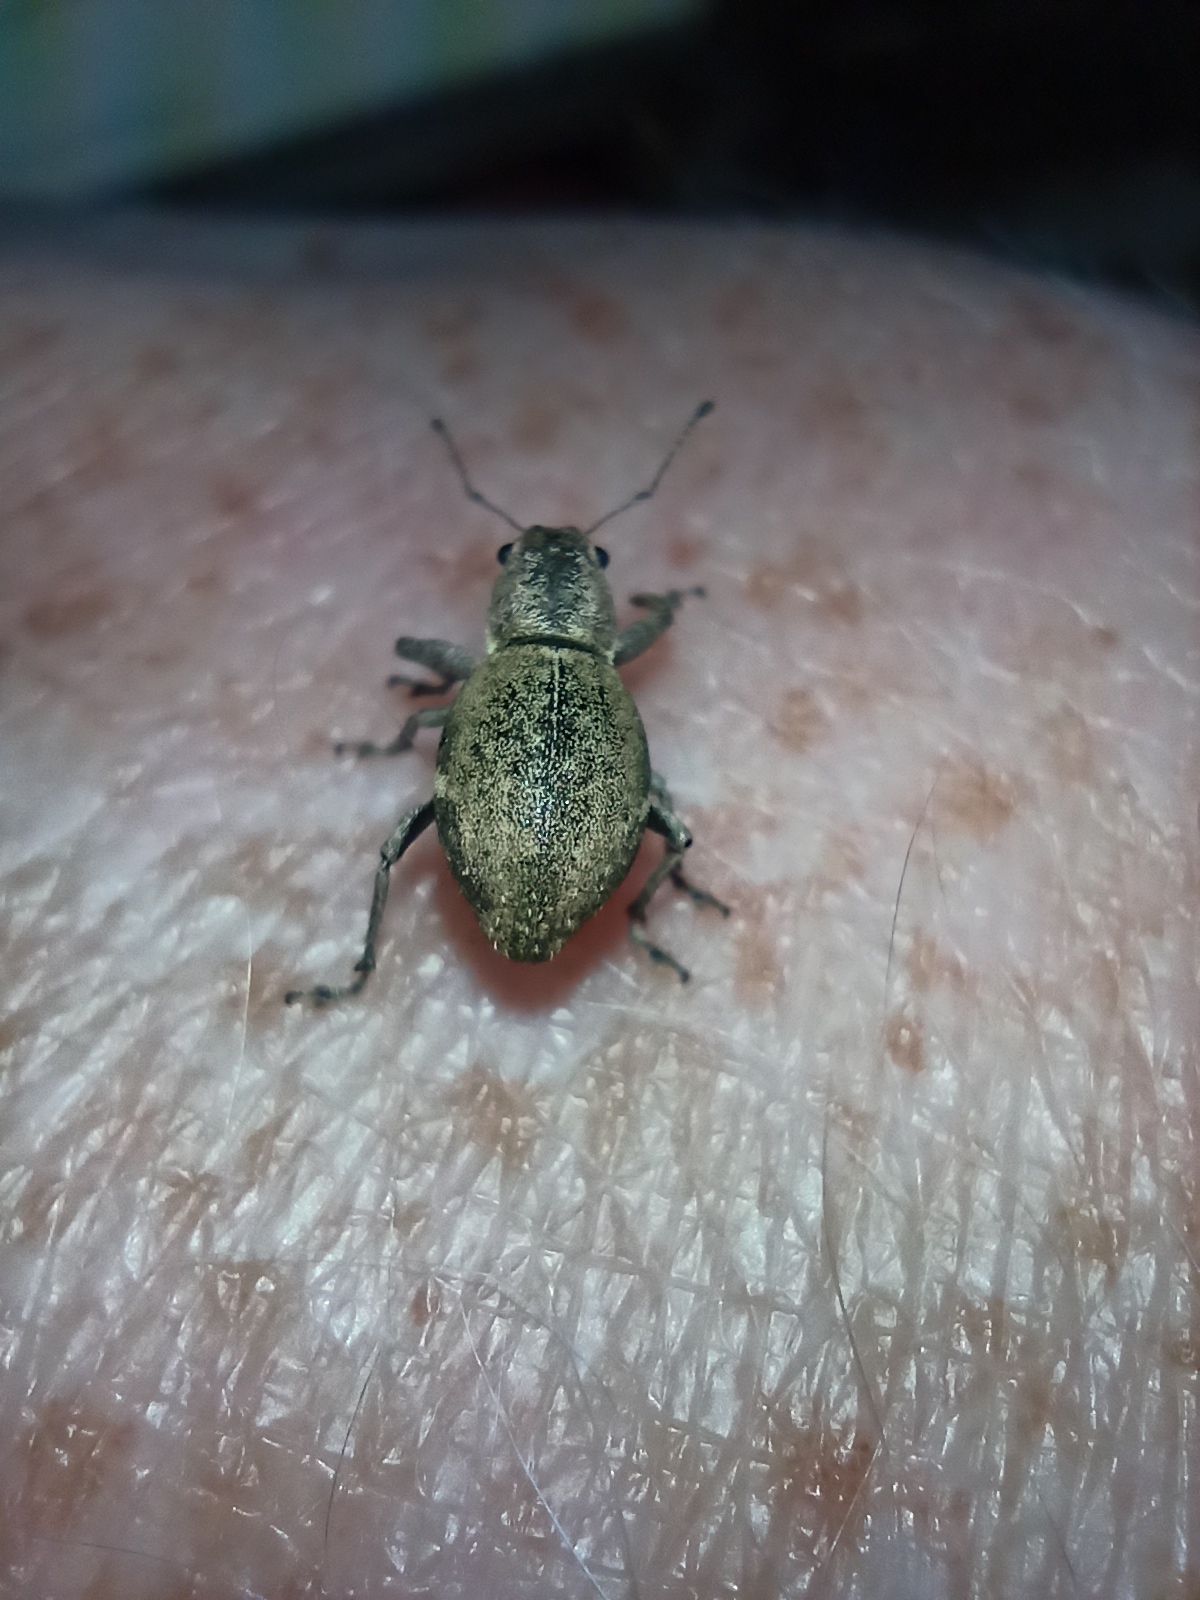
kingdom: Animalia
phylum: Arthropoda
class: Insecta
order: Coleoptera
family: Curculionidae
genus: Naupactus
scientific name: Naupactus cervinus
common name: Fuller rose beetle
